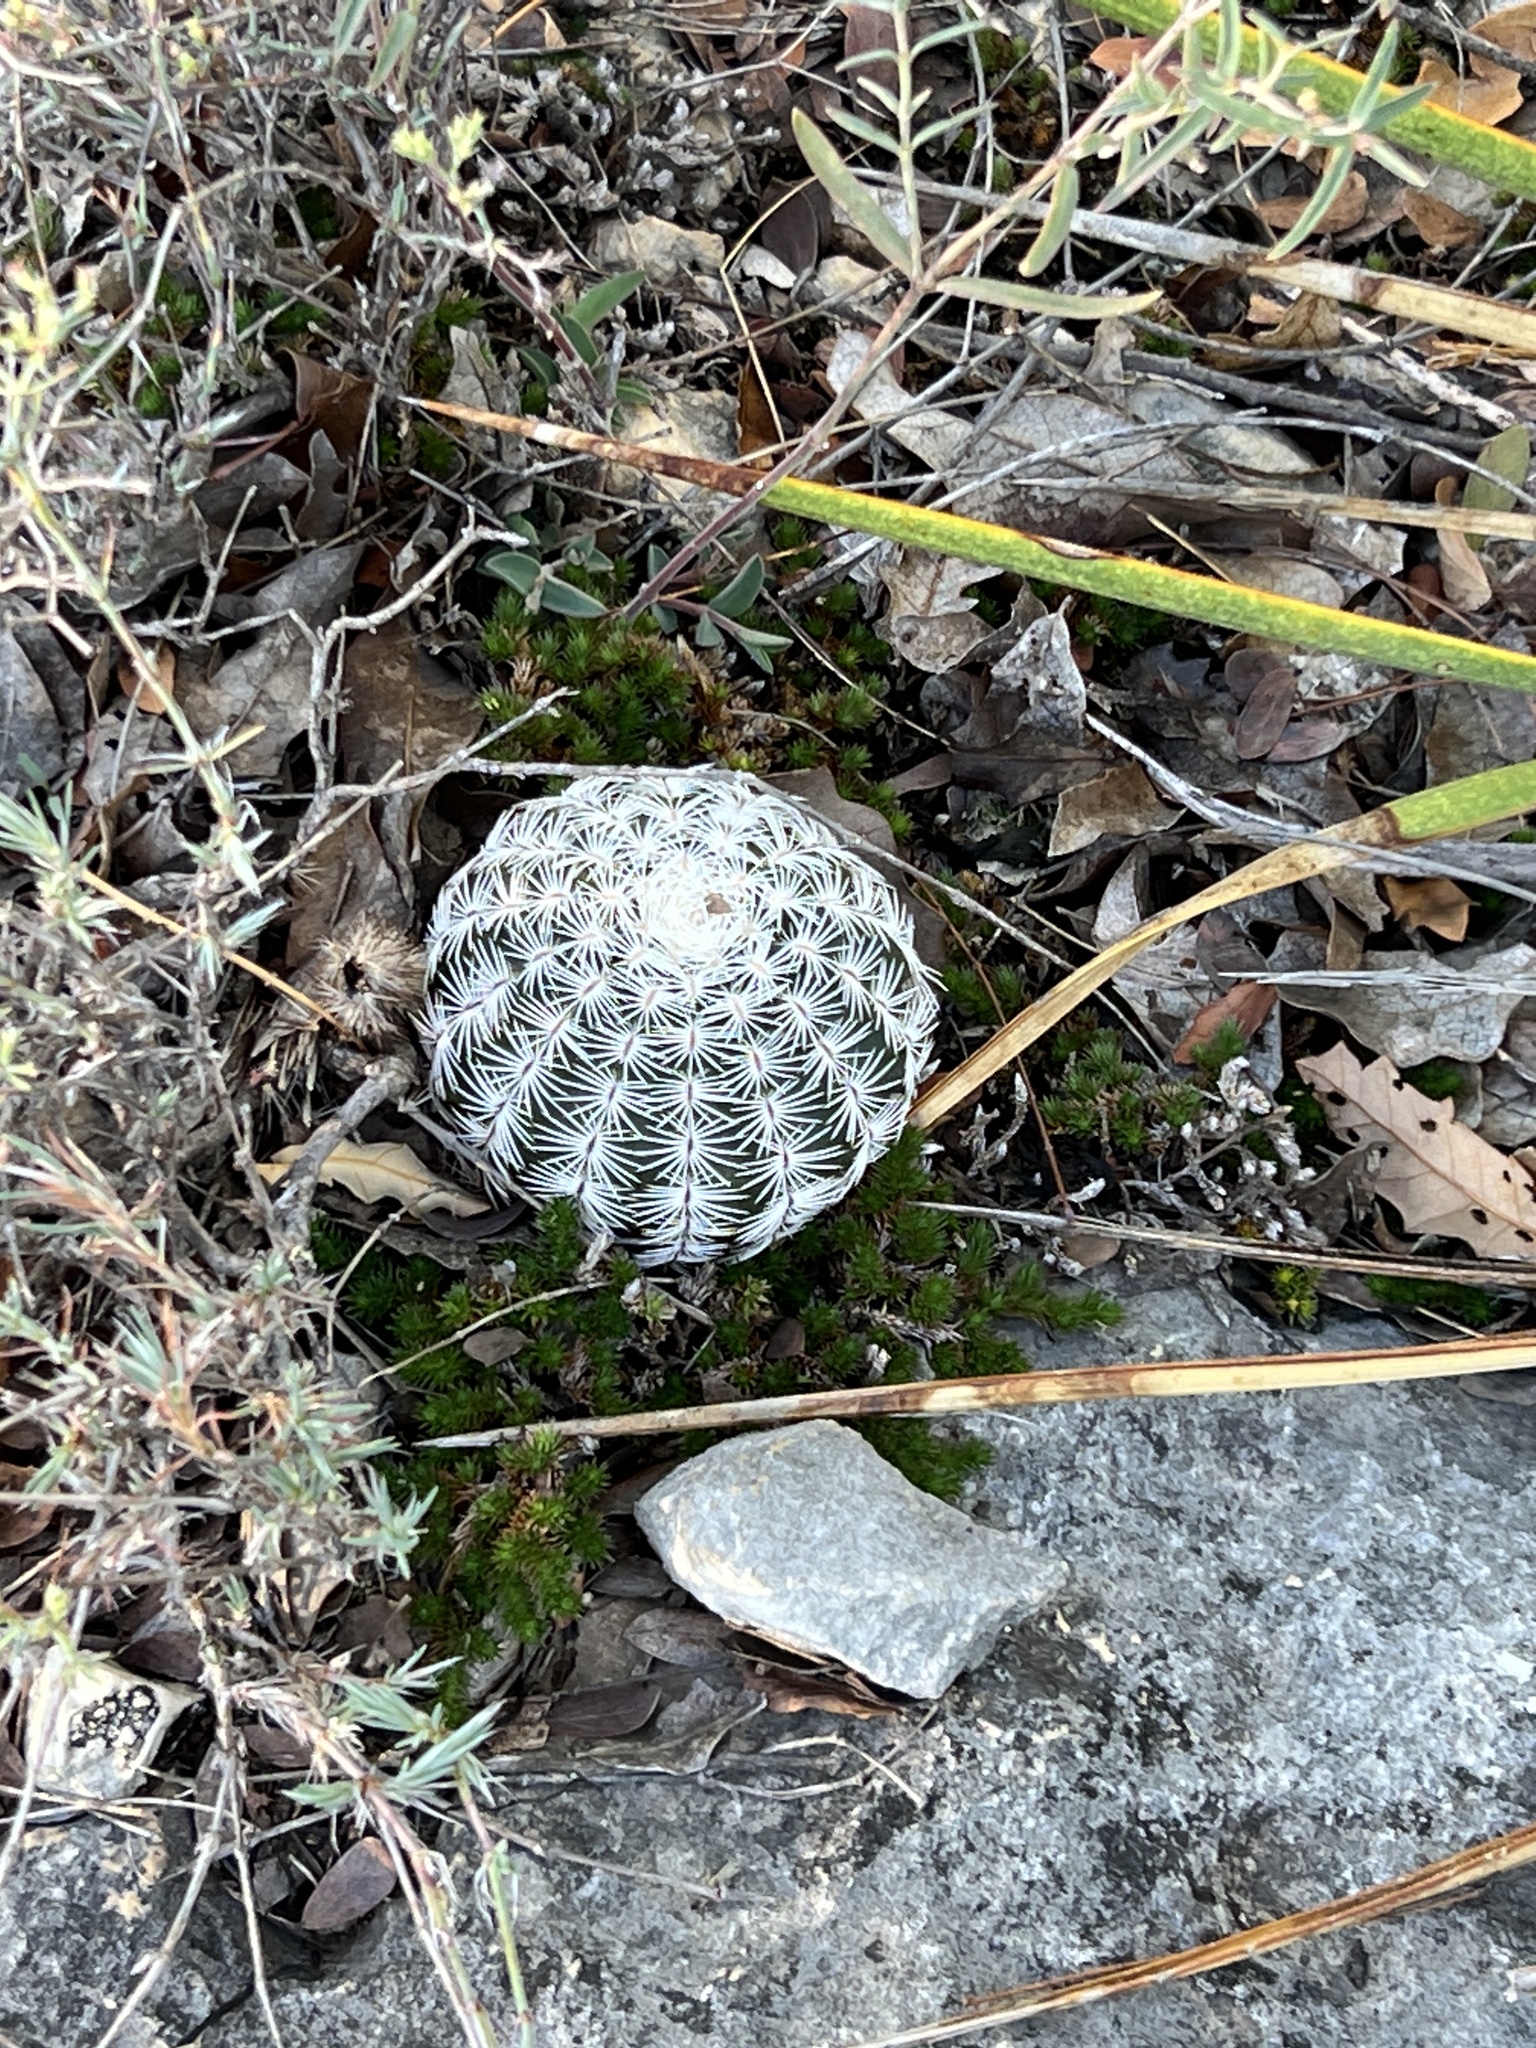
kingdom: Plantae
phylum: Tracheophyta
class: Magnoliopsida
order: Caryophyllales
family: Cactaceae
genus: Echinocereus
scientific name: Echinocereus reichenbachii
